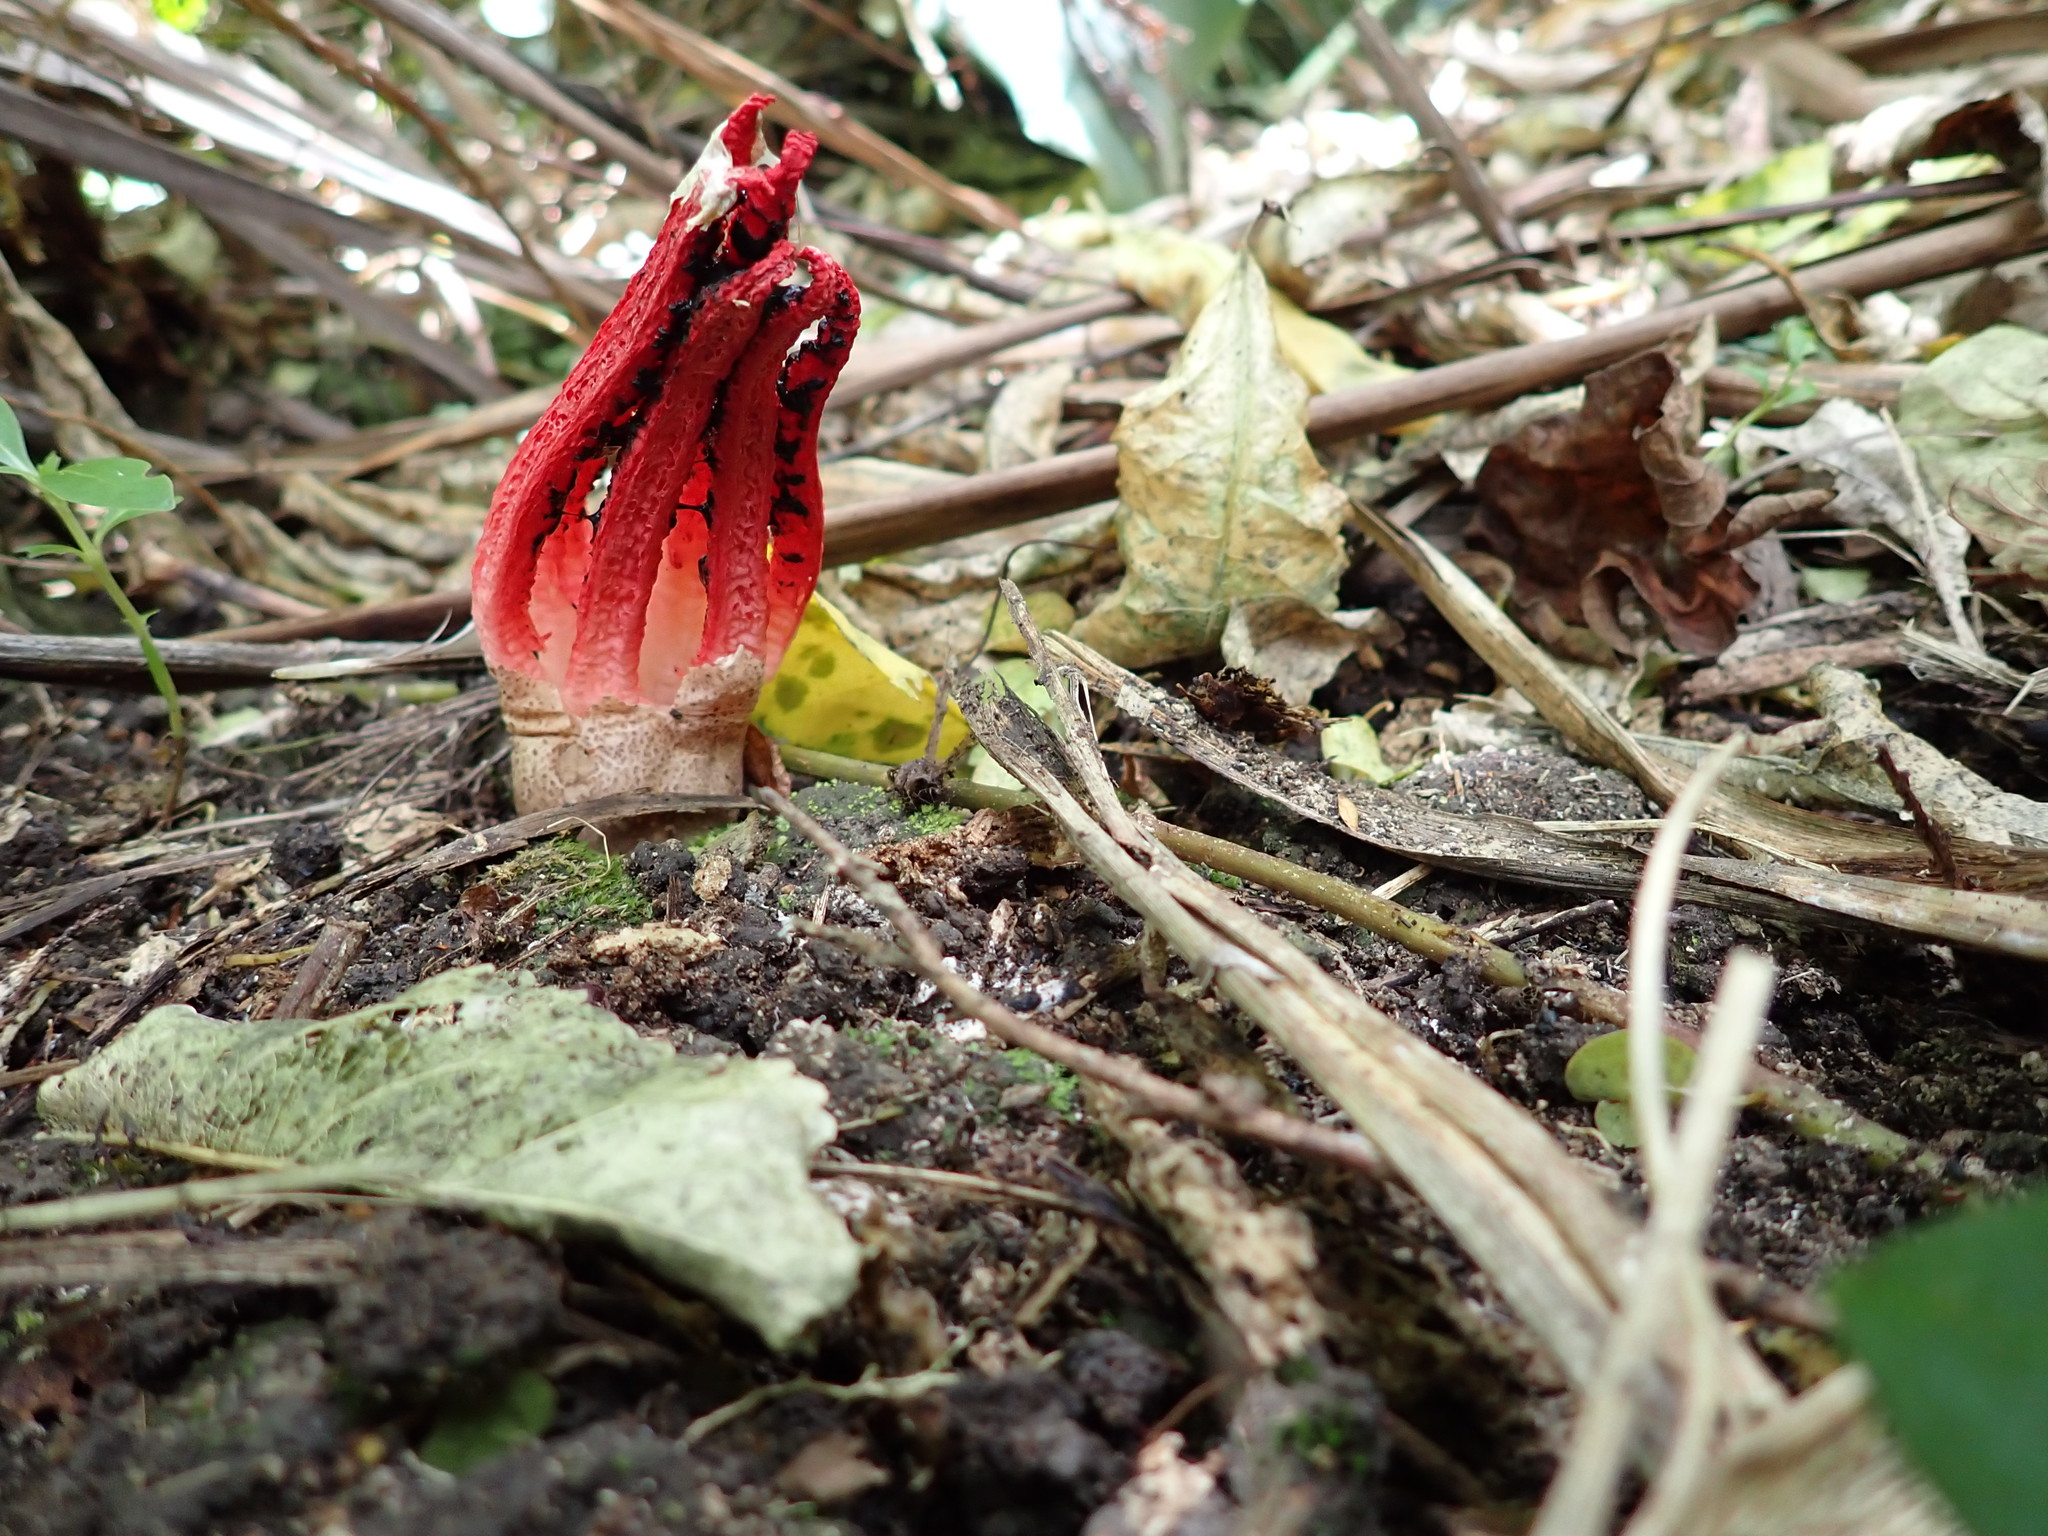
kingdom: Fungi
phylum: Basidiomycota
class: Agaricomycetes
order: Phallales
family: Phallaceae
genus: Clathrus
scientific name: Clathrus archeri
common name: Devil's fingers
